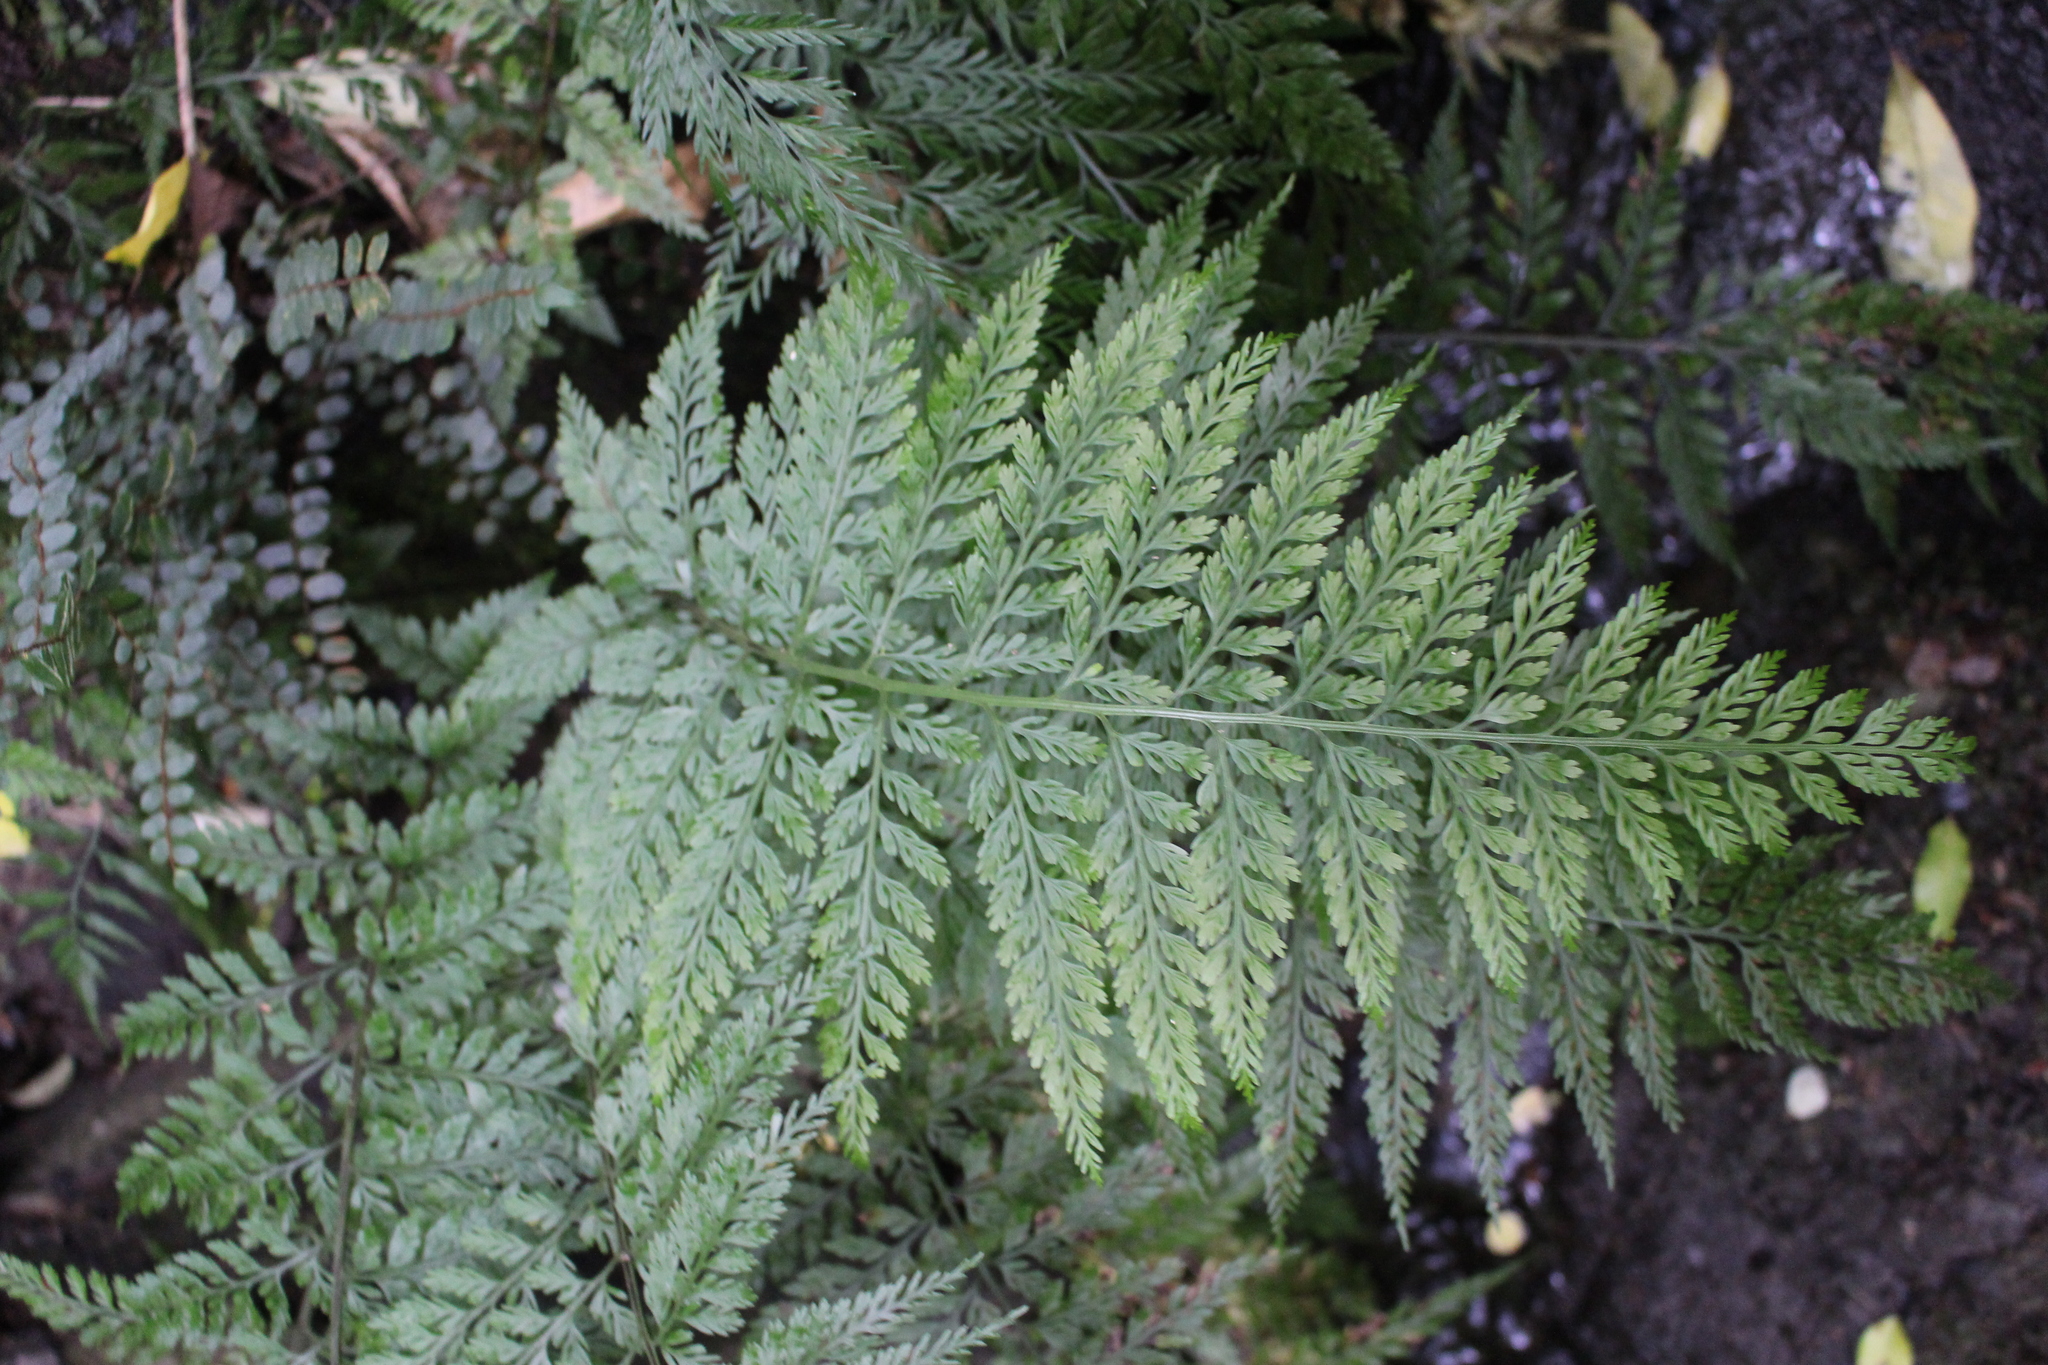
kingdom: Plantae
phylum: Tracheophyta
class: Polypodiopsida
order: Polypodiales
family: Aspleniaceae
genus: Asplenium
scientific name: Asplenium
